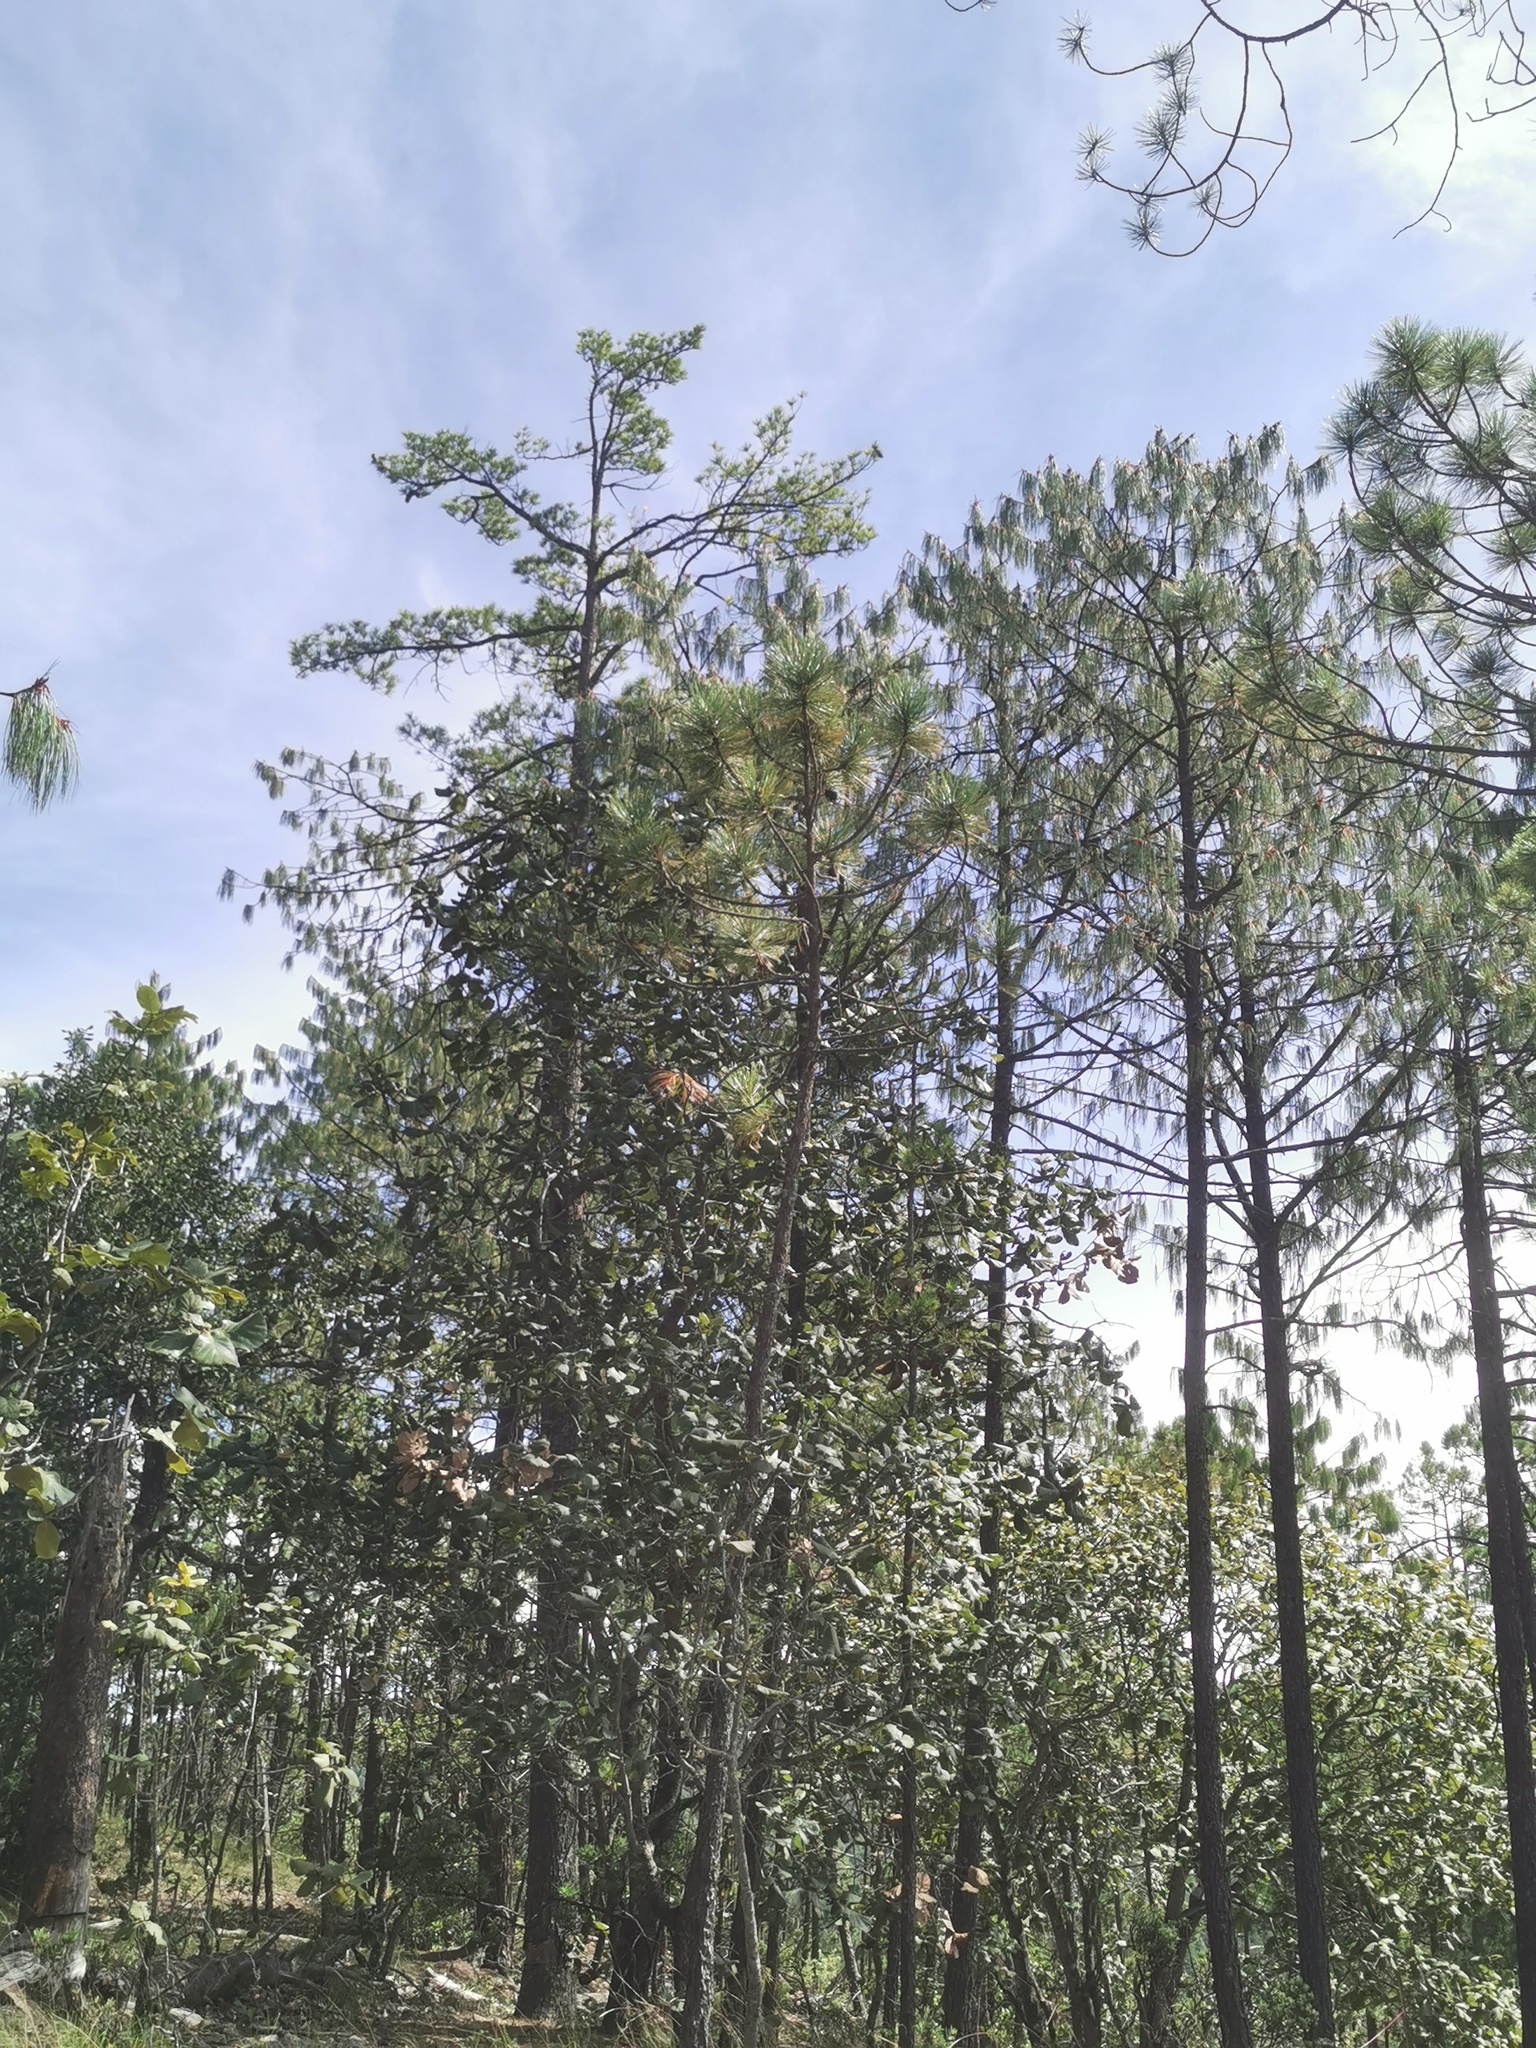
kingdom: Plantae
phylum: Tracheophyta
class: Pinopsida
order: Pinales
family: Pinaceae
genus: Pinus
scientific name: Pinus lumholtzii
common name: Lumholtz's pine
